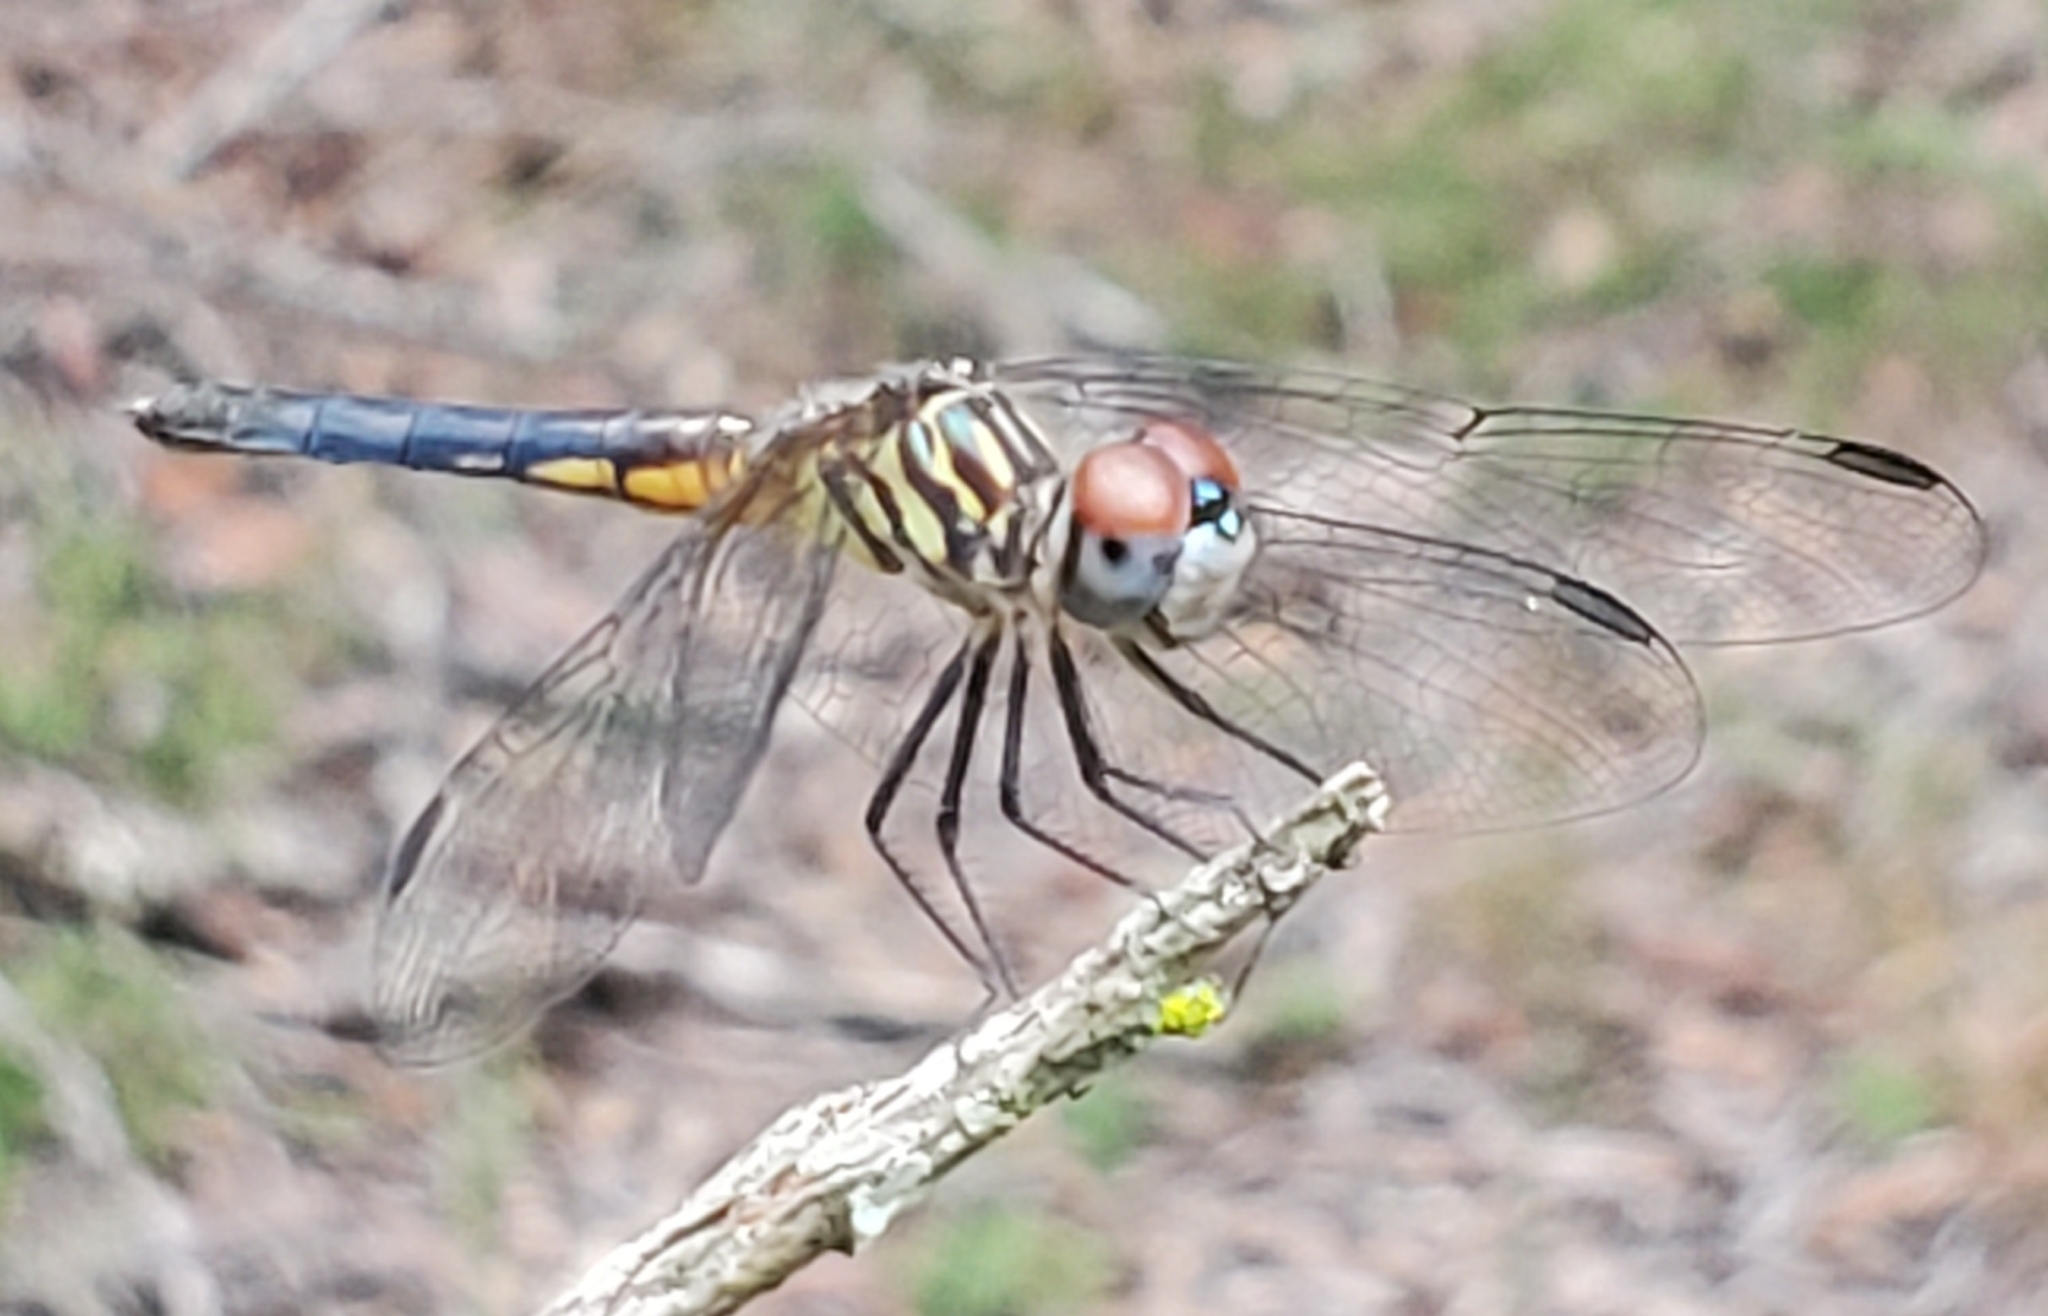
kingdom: Animalia
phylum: Arthropoda
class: Insecta
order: Odonata
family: Libellulidae
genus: Pachydiplax
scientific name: Pachydiplax longipennis
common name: Blue dasher
